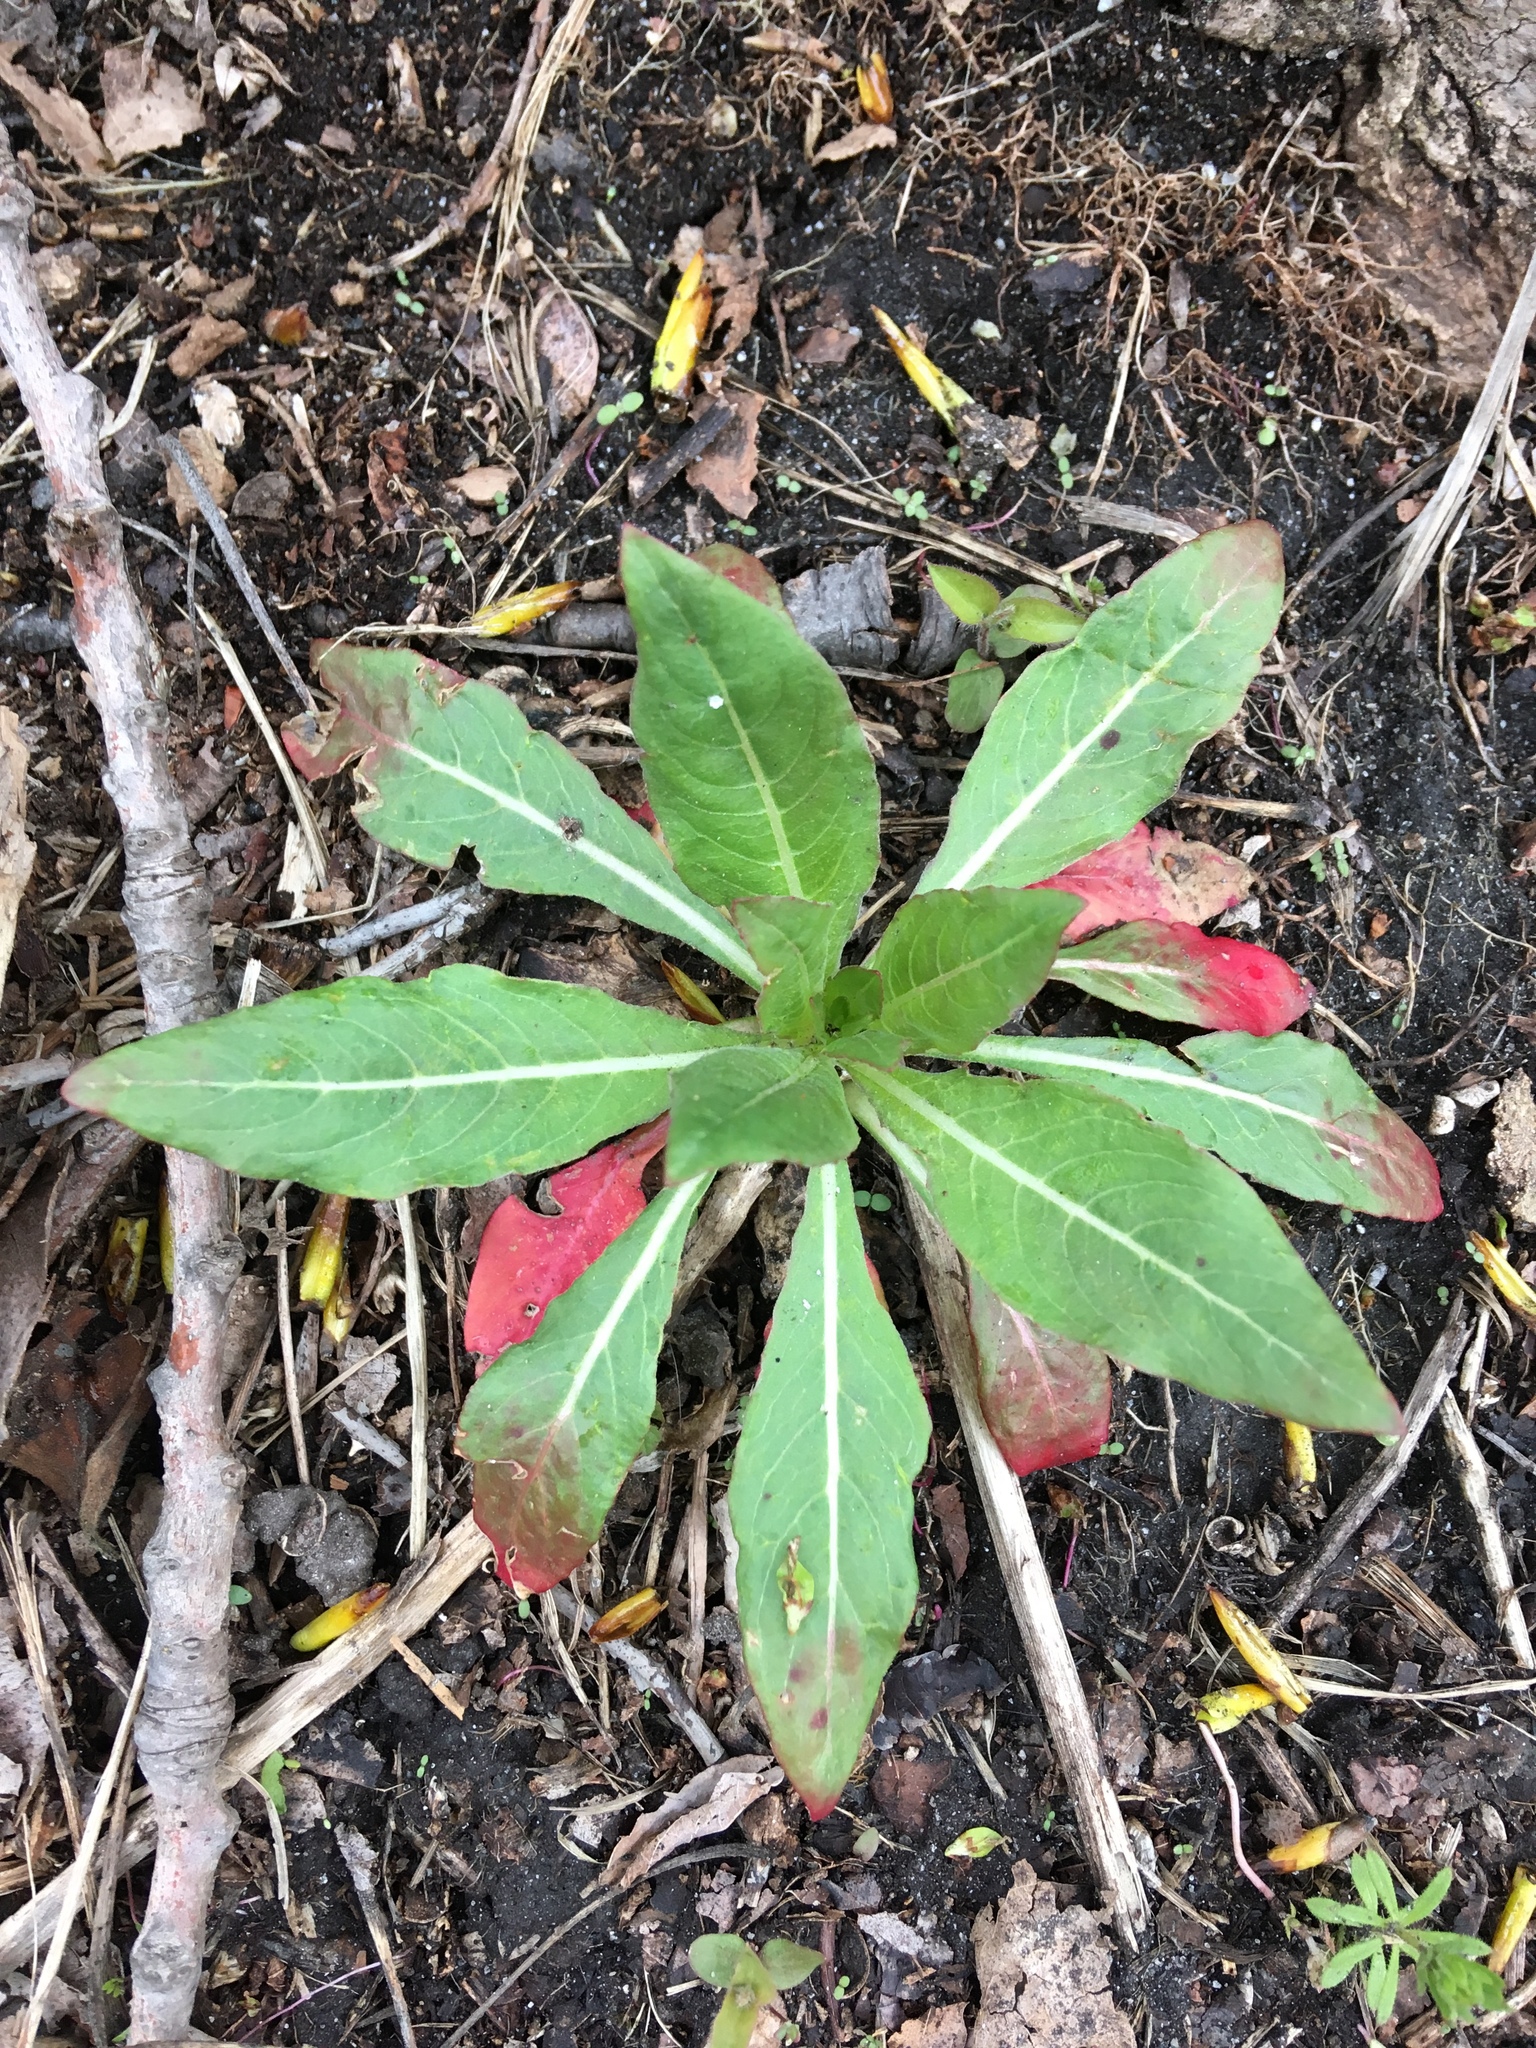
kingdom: Plantae
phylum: Tracheophyta
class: Magnoliopsida
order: Myrtales
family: Onagraceae
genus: Oenothera
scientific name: Oenothera biennis
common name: Common evening-primrose
